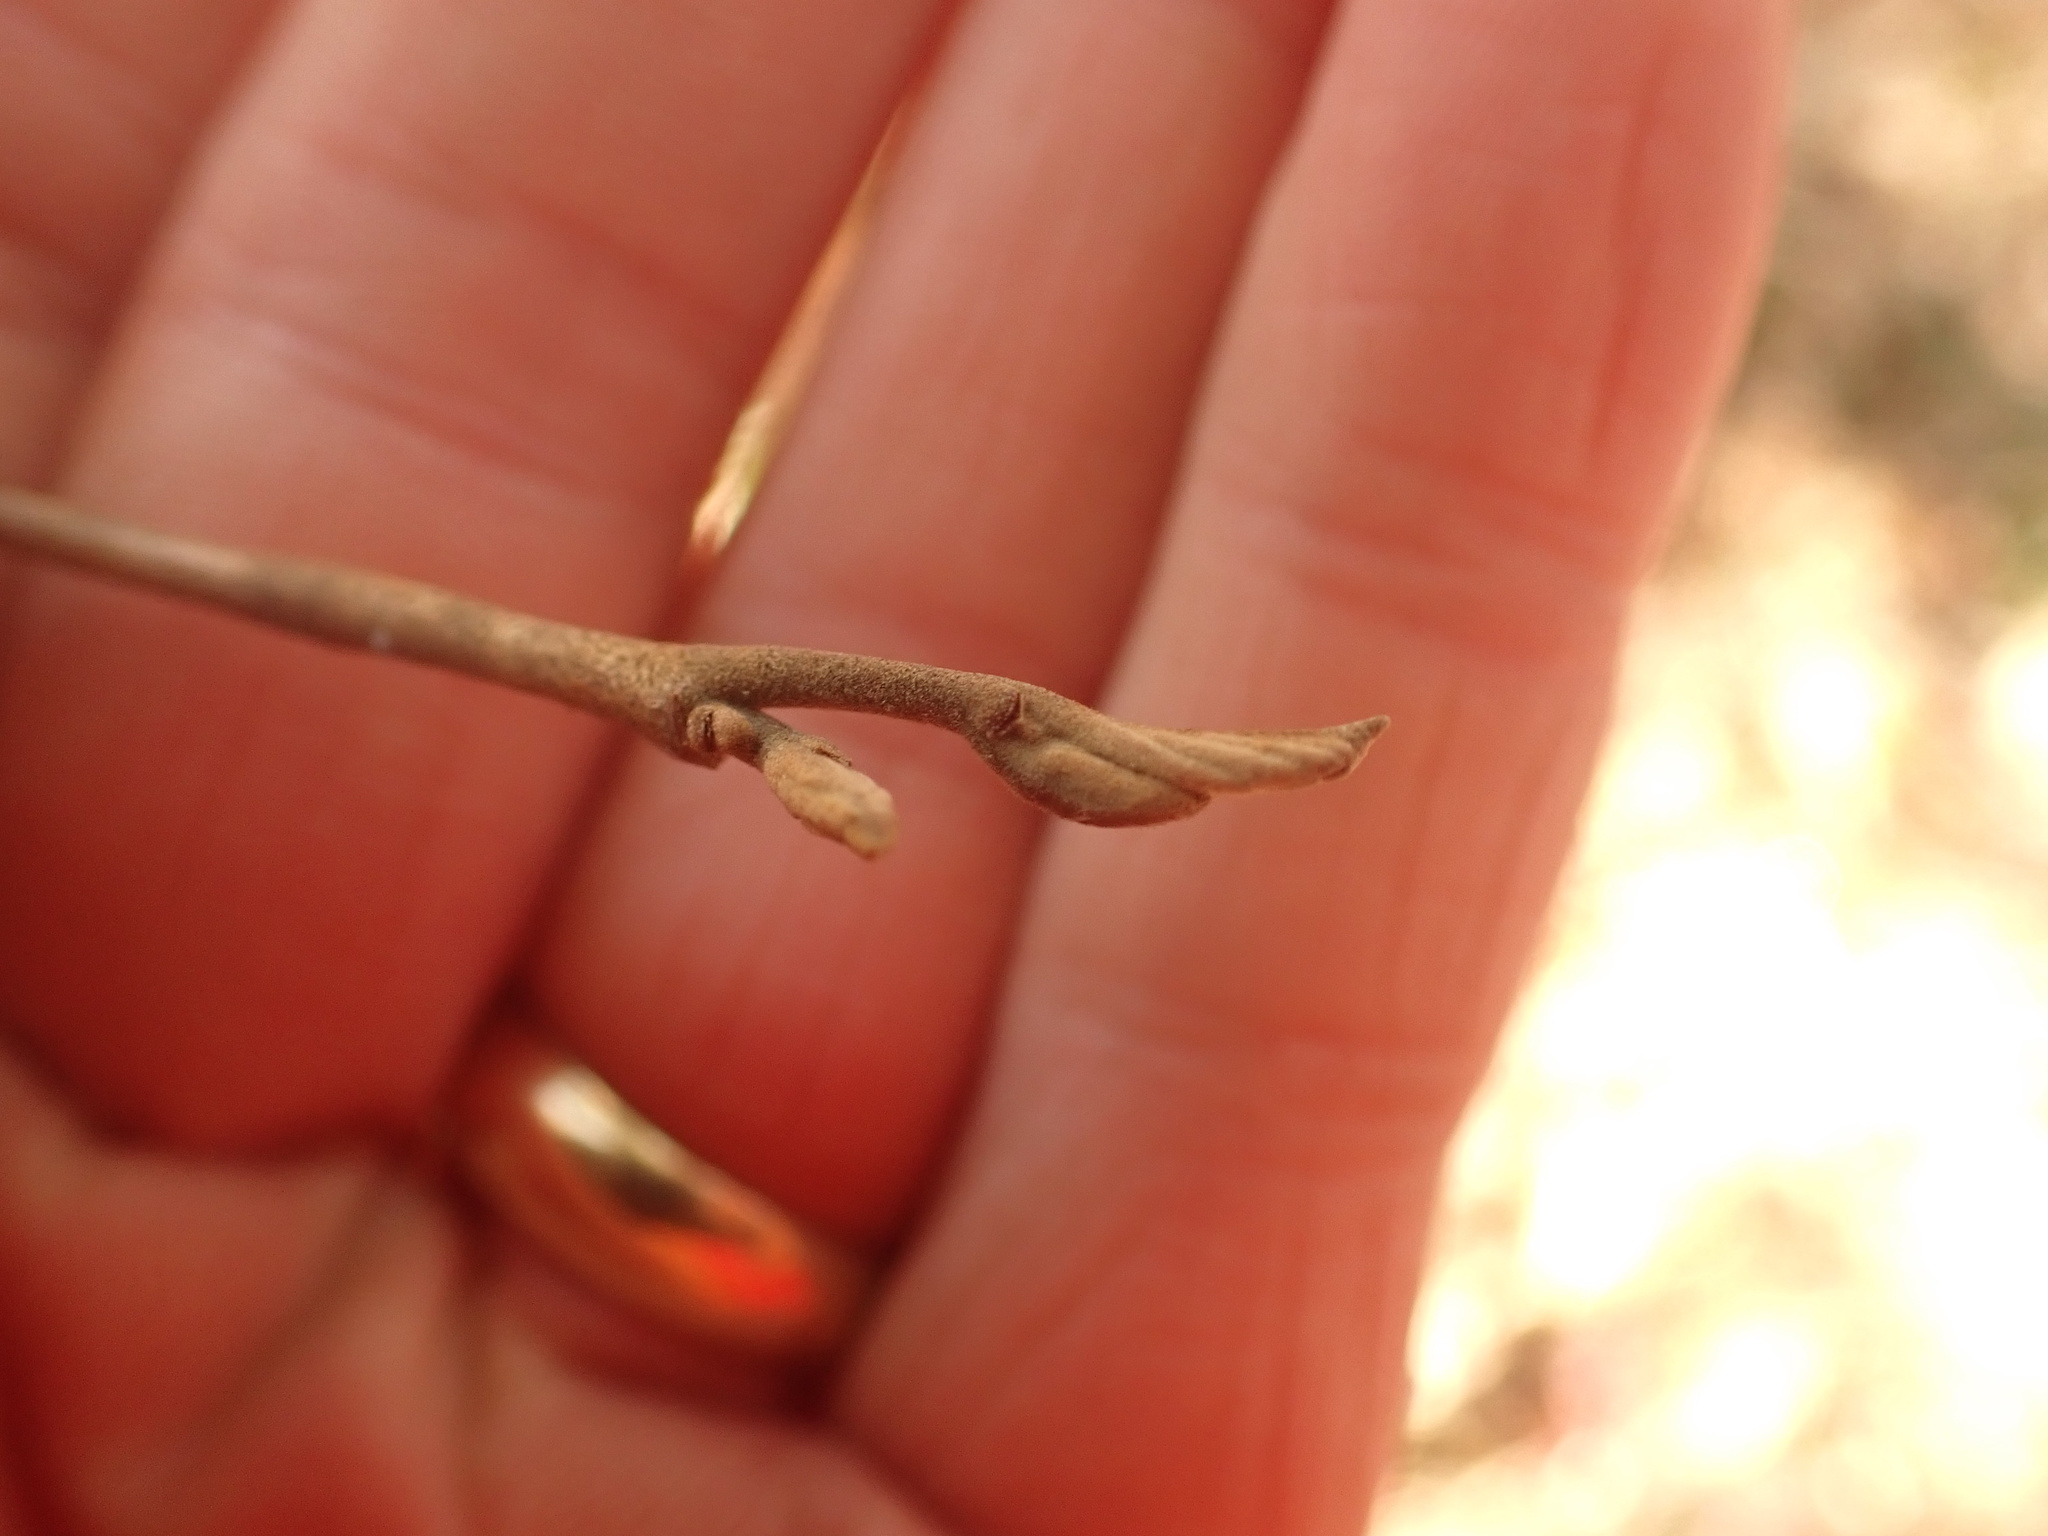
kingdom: Plantae
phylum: Tracheophyta
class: Magnoliopsida
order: Saxifragales
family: Hamamelidaceae
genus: Hamamelis
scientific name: Hamamelis virginiana
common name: Witch-hazel
